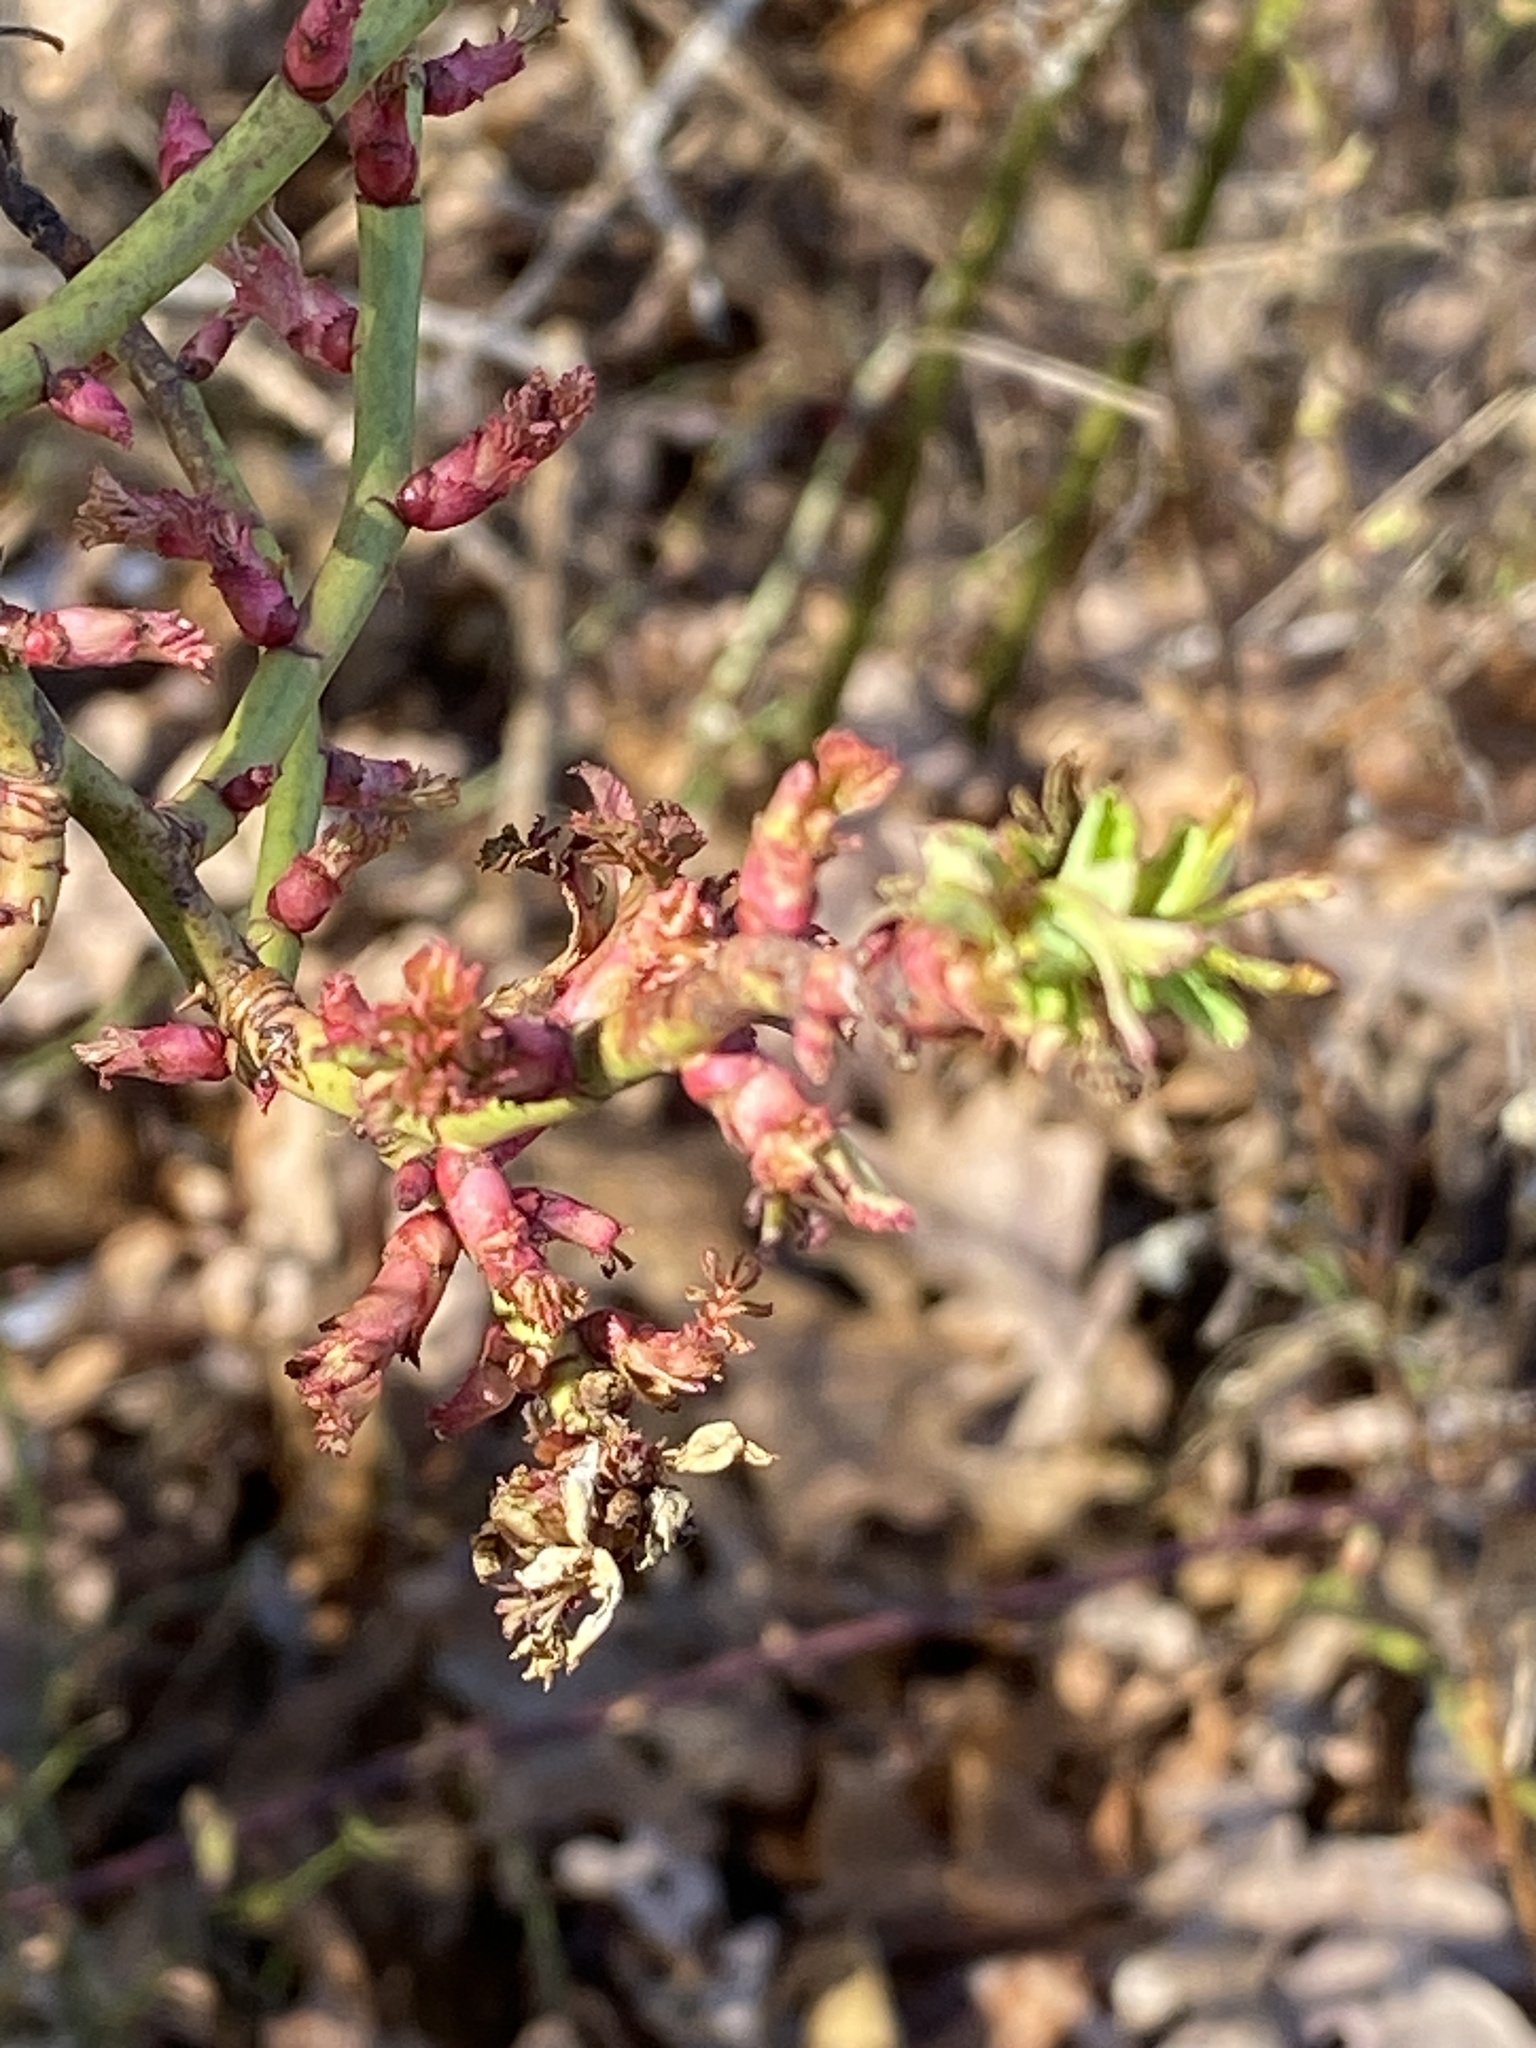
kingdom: Viruses
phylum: Negarnaviricota
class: Ellioviricetes
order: Bunyavirales
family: Fimoviridae
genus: Emaravirus
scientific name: Emaravirus rosae
